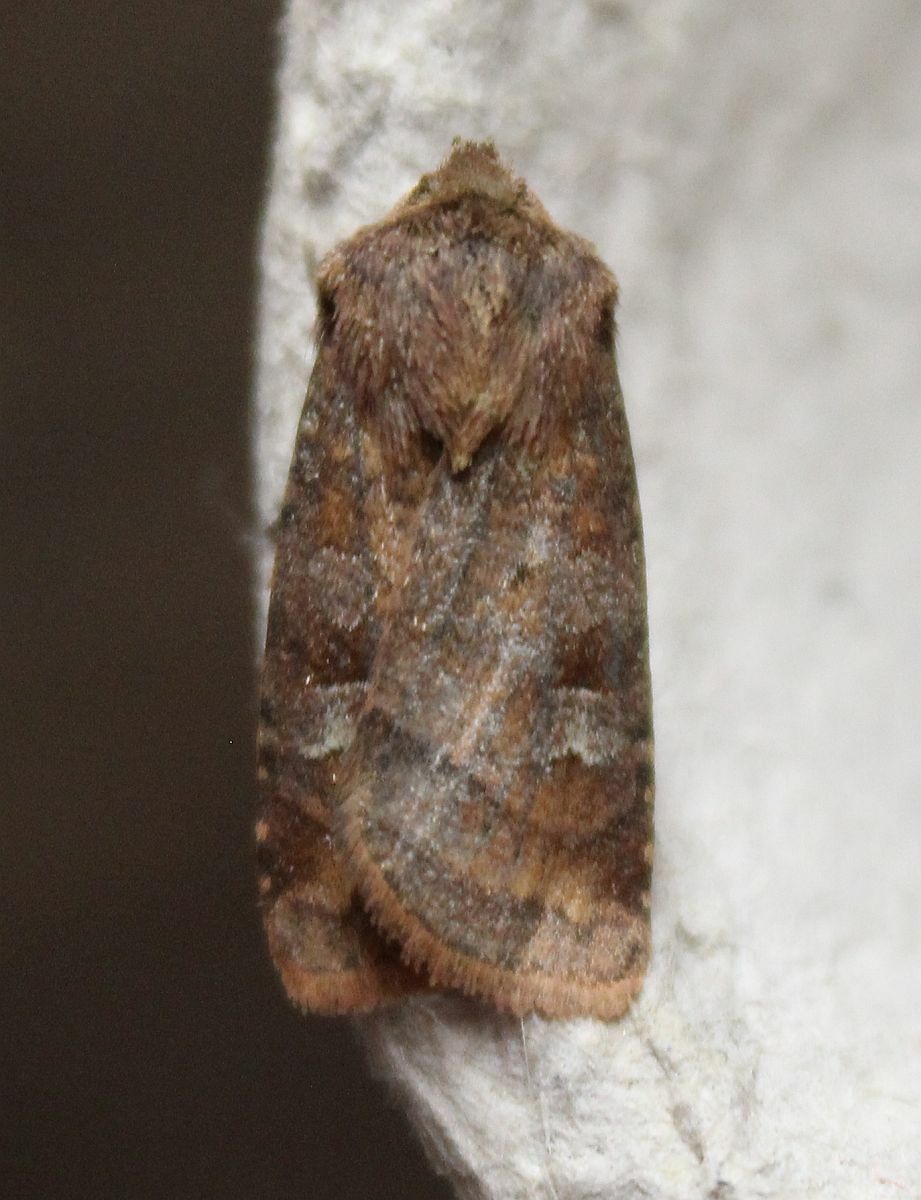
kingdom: Animalia
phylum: Arthropoda
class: Insecta
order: Lepidoptera
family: Noctuidae
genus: Diarsia
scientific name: Diarsia rubi
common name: Small square-spot
